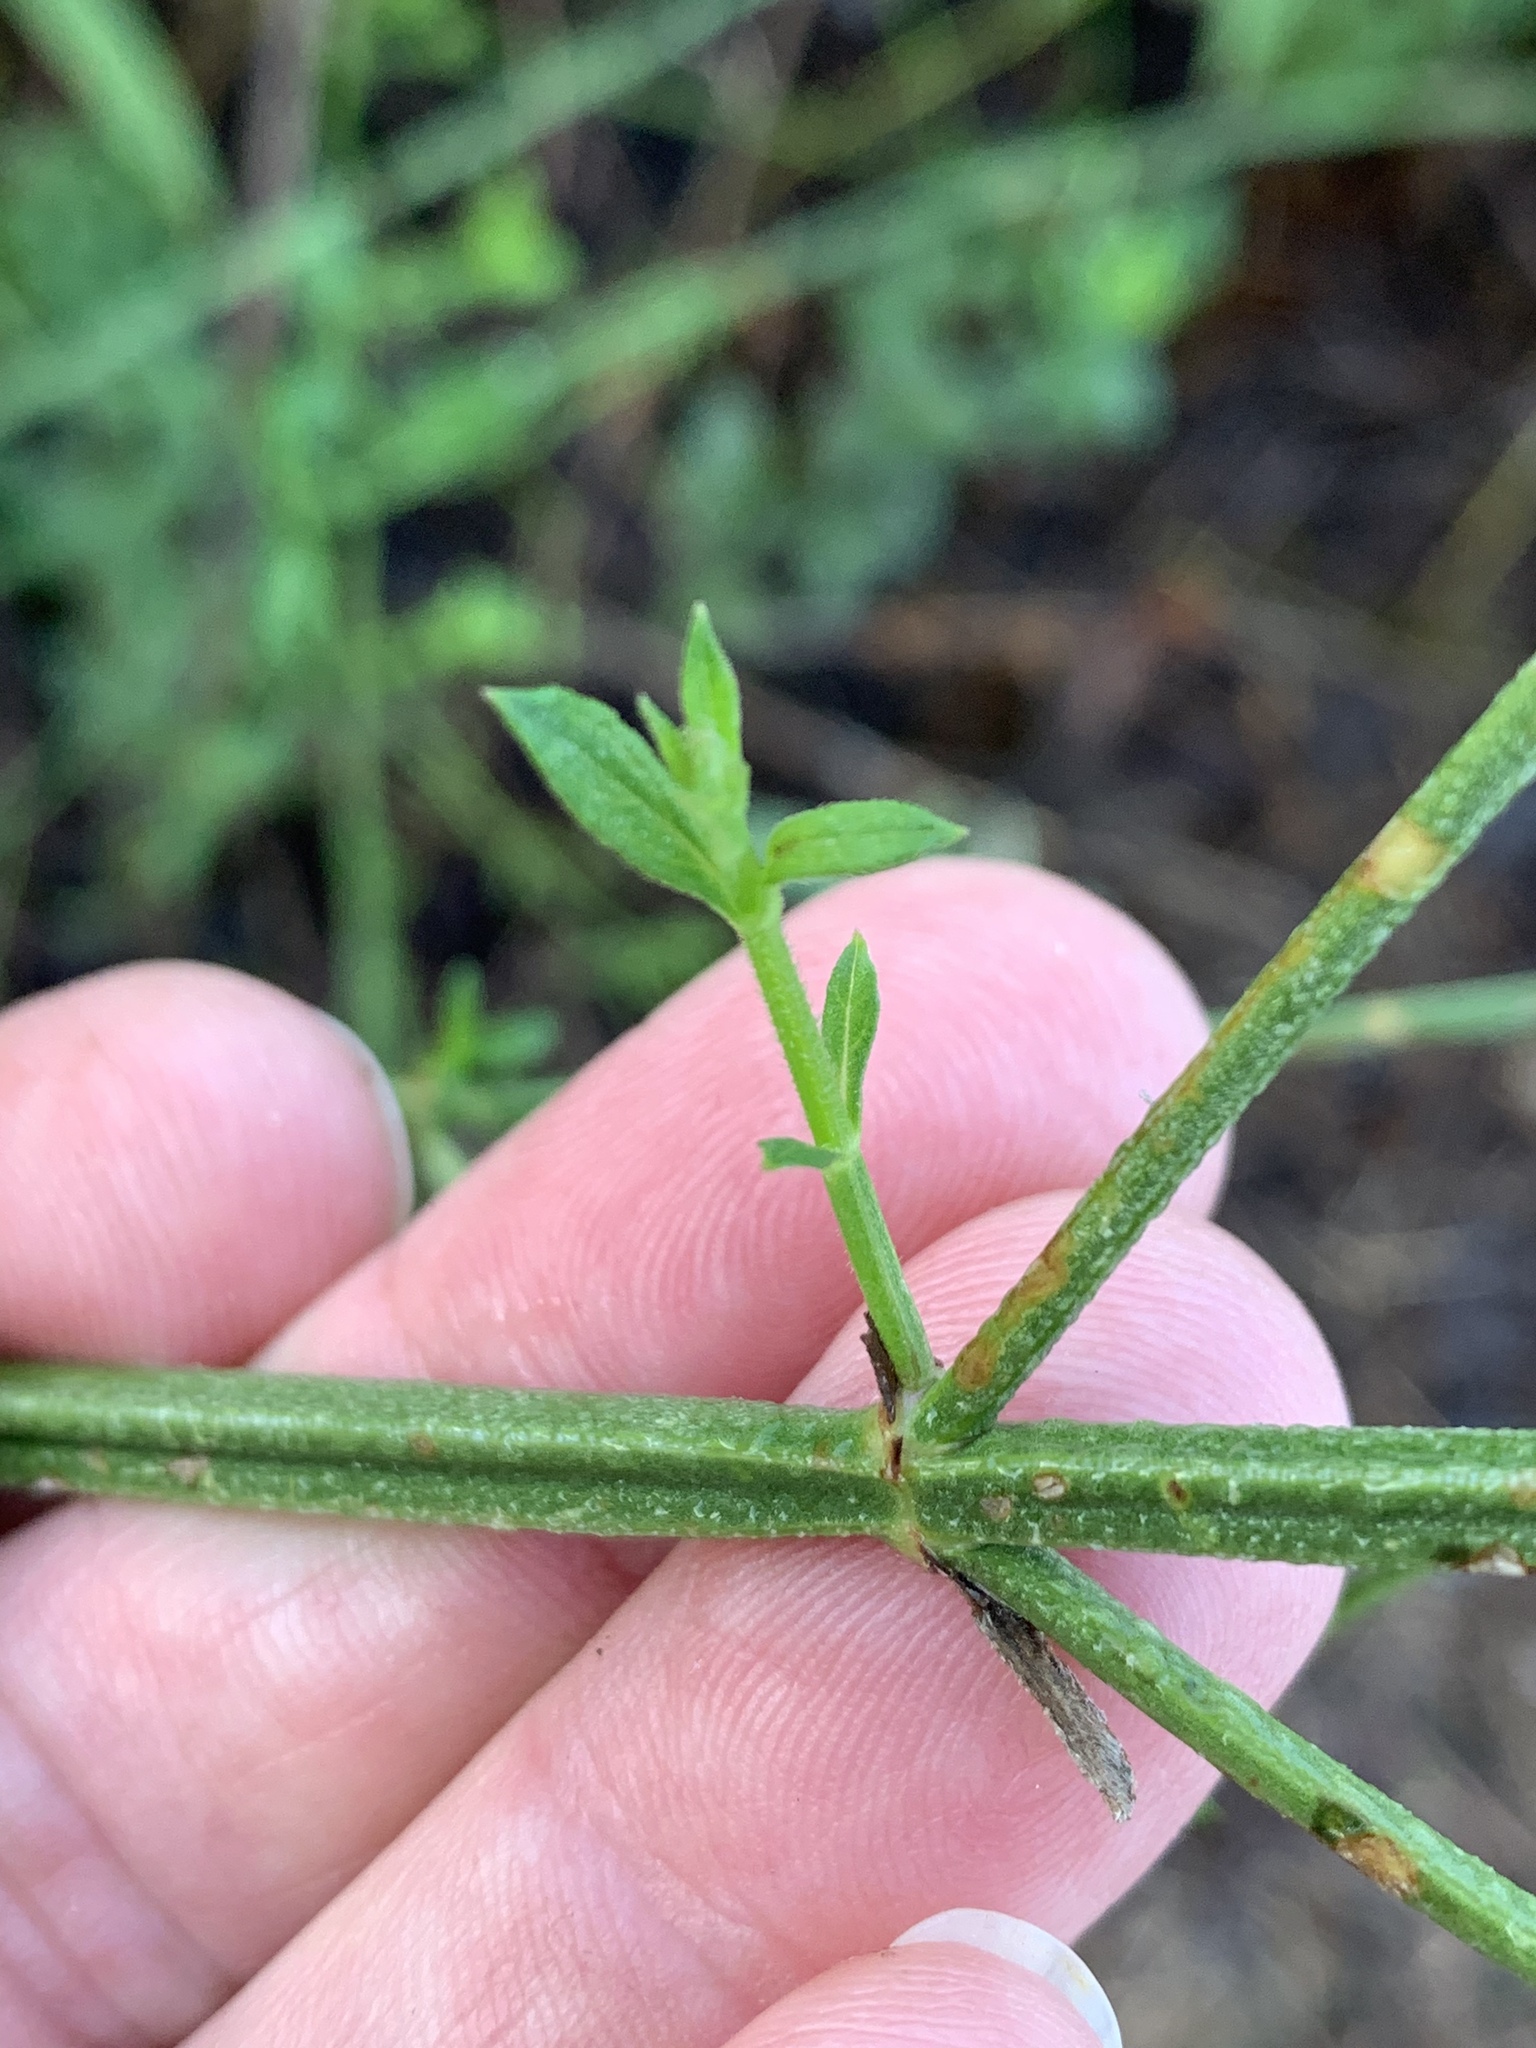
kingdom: Plantae
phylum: Tracheophyta
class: Magnoliopsida
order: Lamiales
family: Verbenaceae
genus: Verbena
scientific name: Verbena brasiliensis
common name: Brazilian vervain
